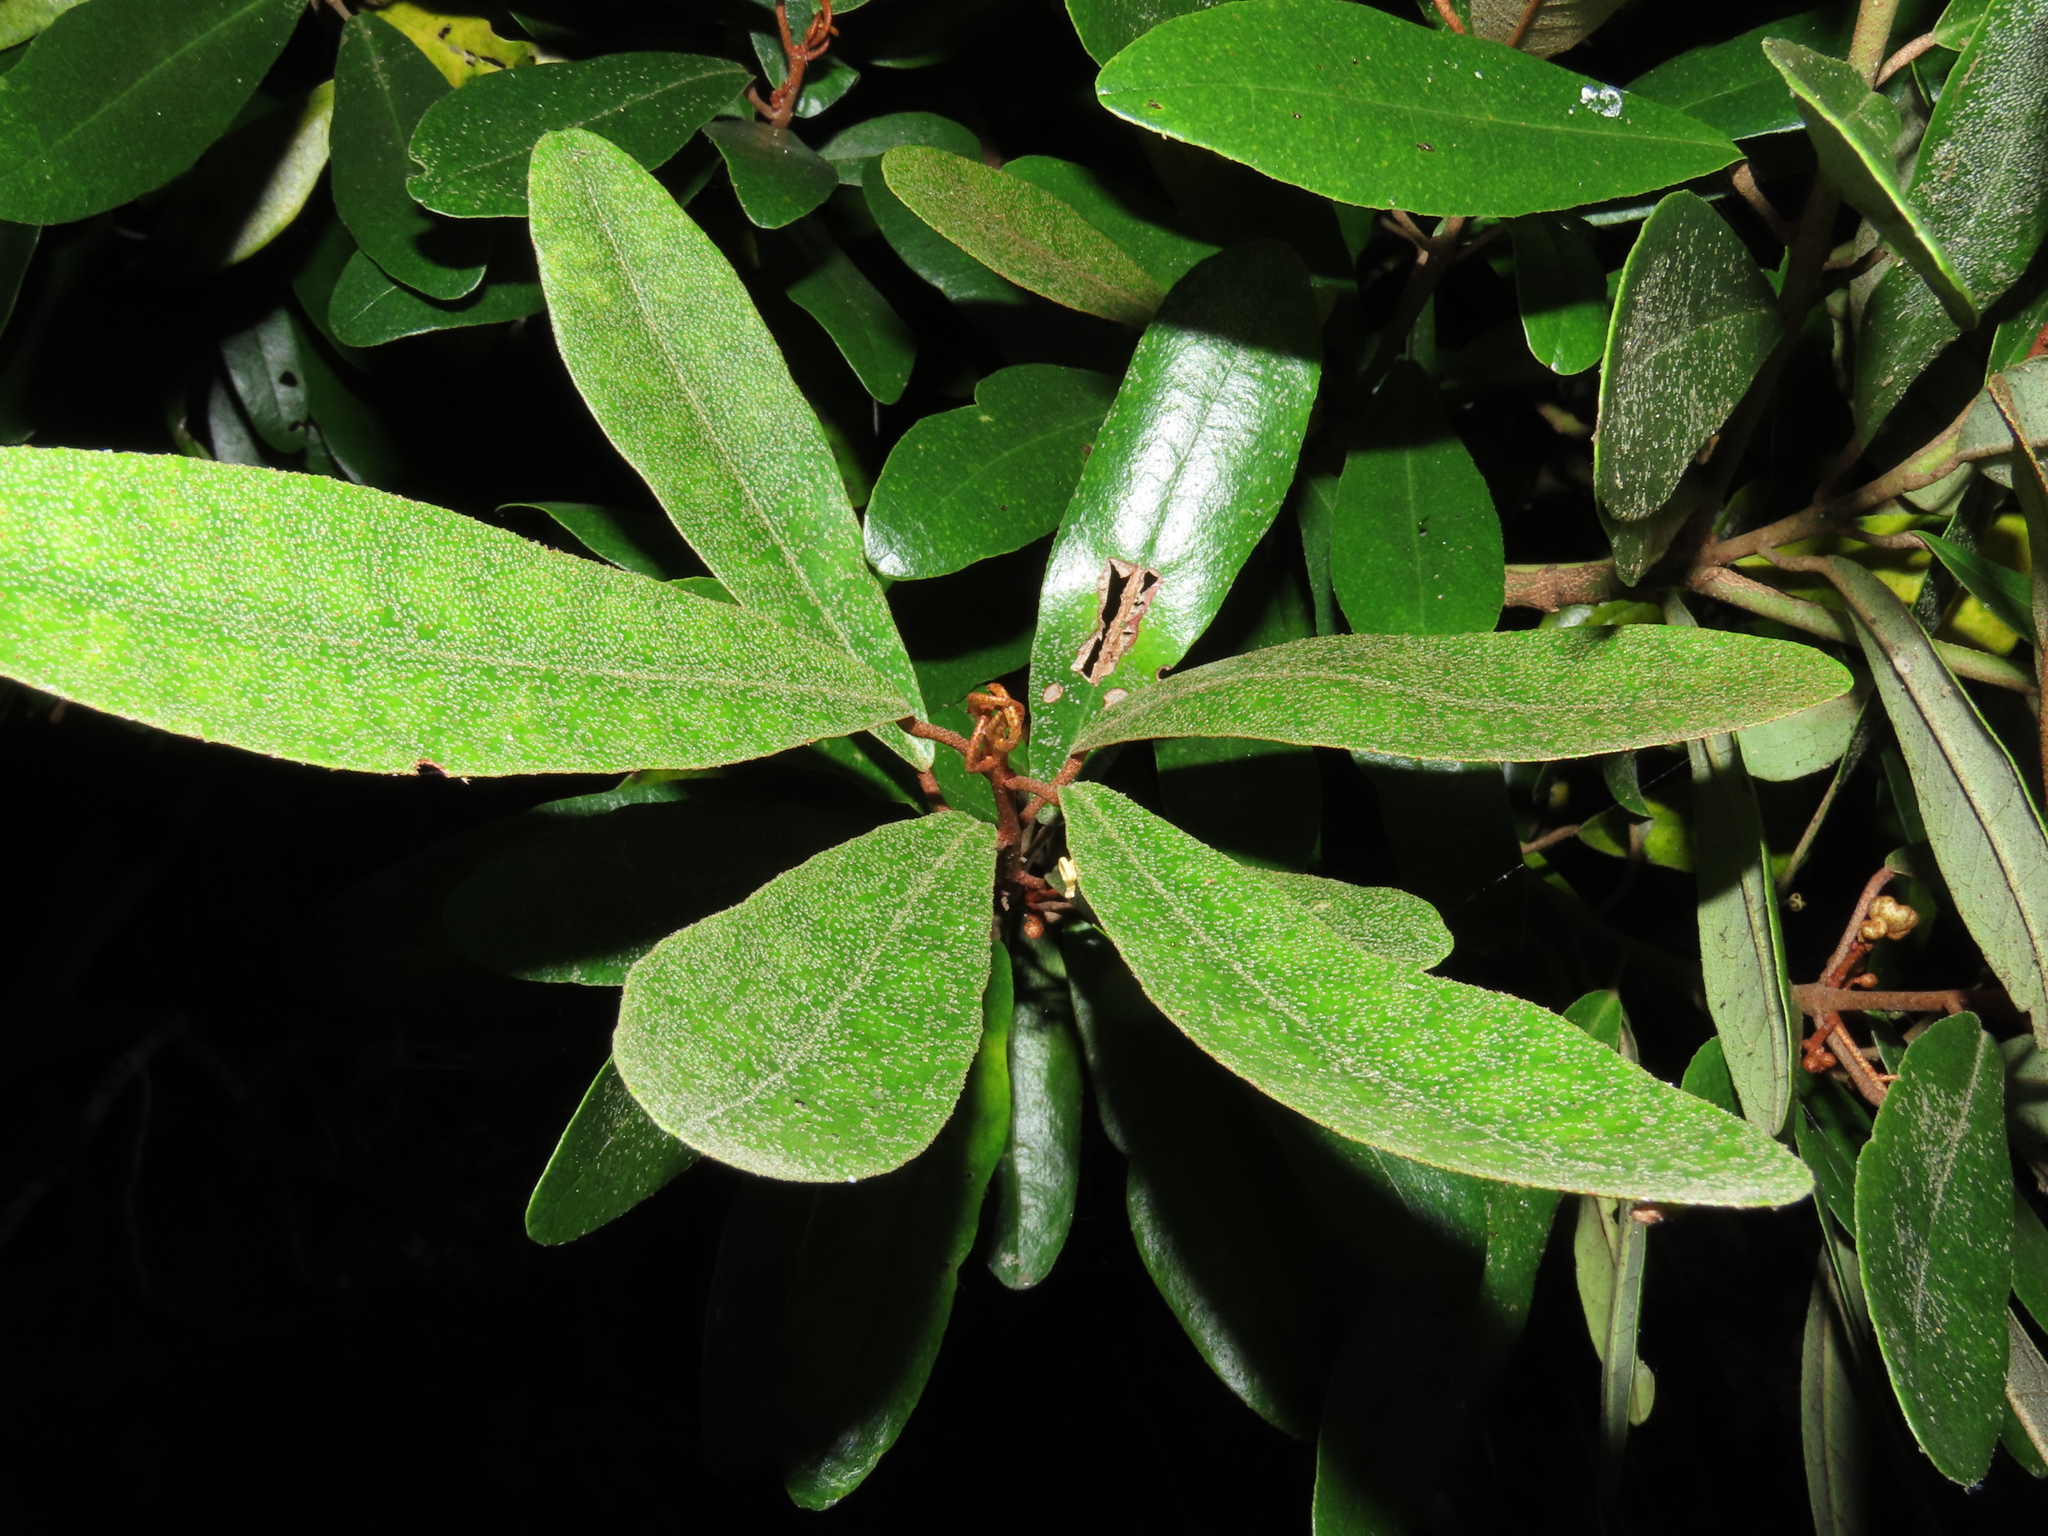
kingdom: Plantae
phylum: Tracheophyta
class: Magnoliopsida
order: Berberidopsidales
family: Aextoxicaceae
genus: Aextoxicon
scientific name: Aextoxicon punctatum
